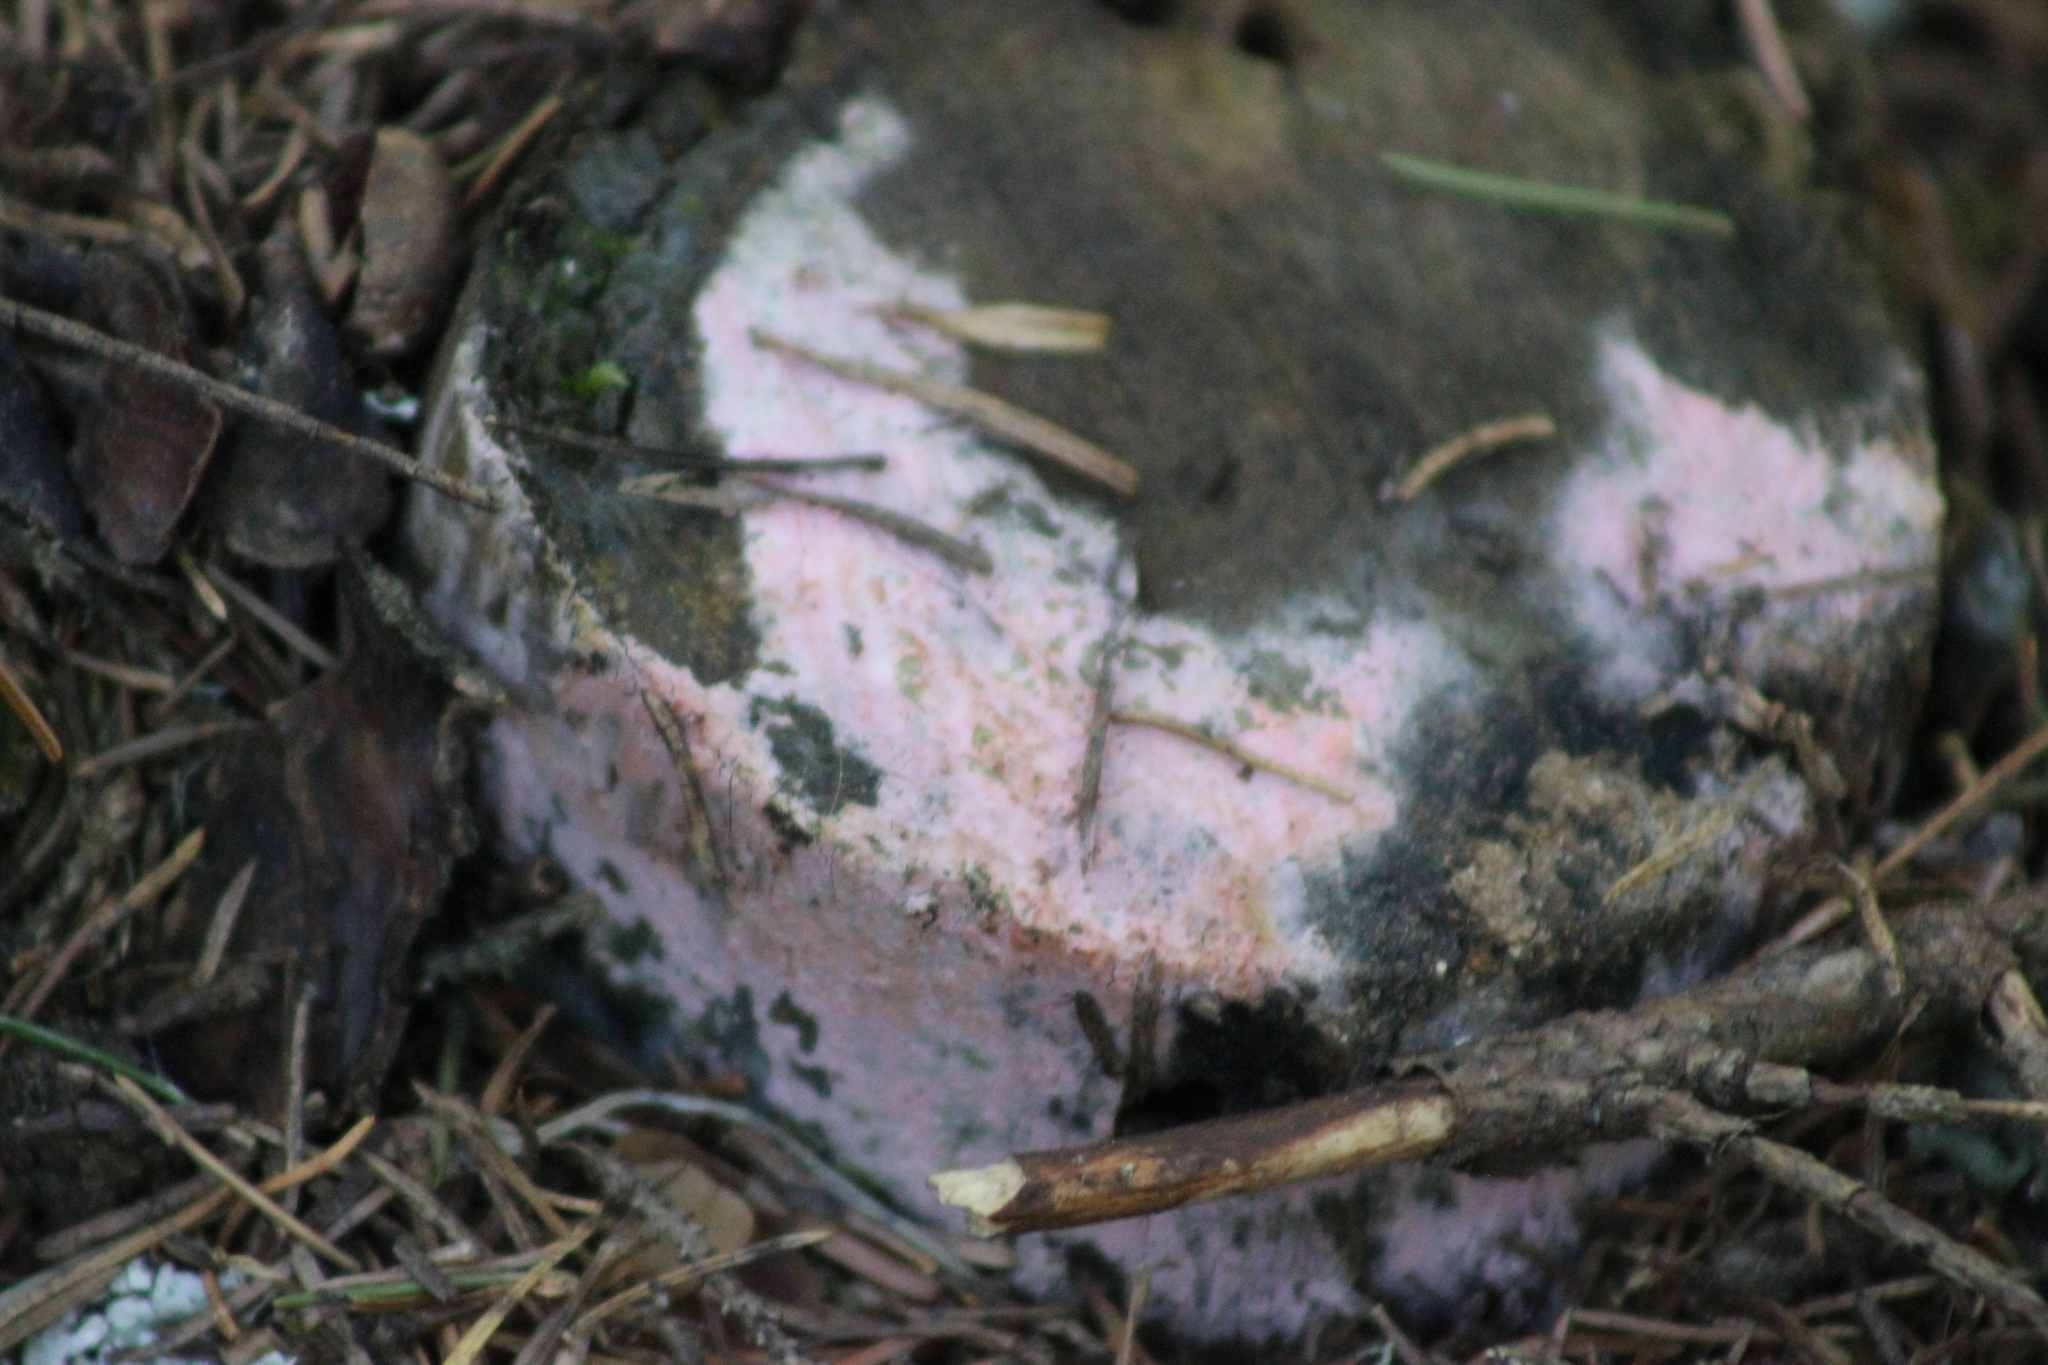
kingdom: Fungi
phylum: Basidiomycota
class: Agaricomycetes
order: Corticiales
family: Corticiaceae
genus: Erythricium
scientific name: Erythricium laetum
